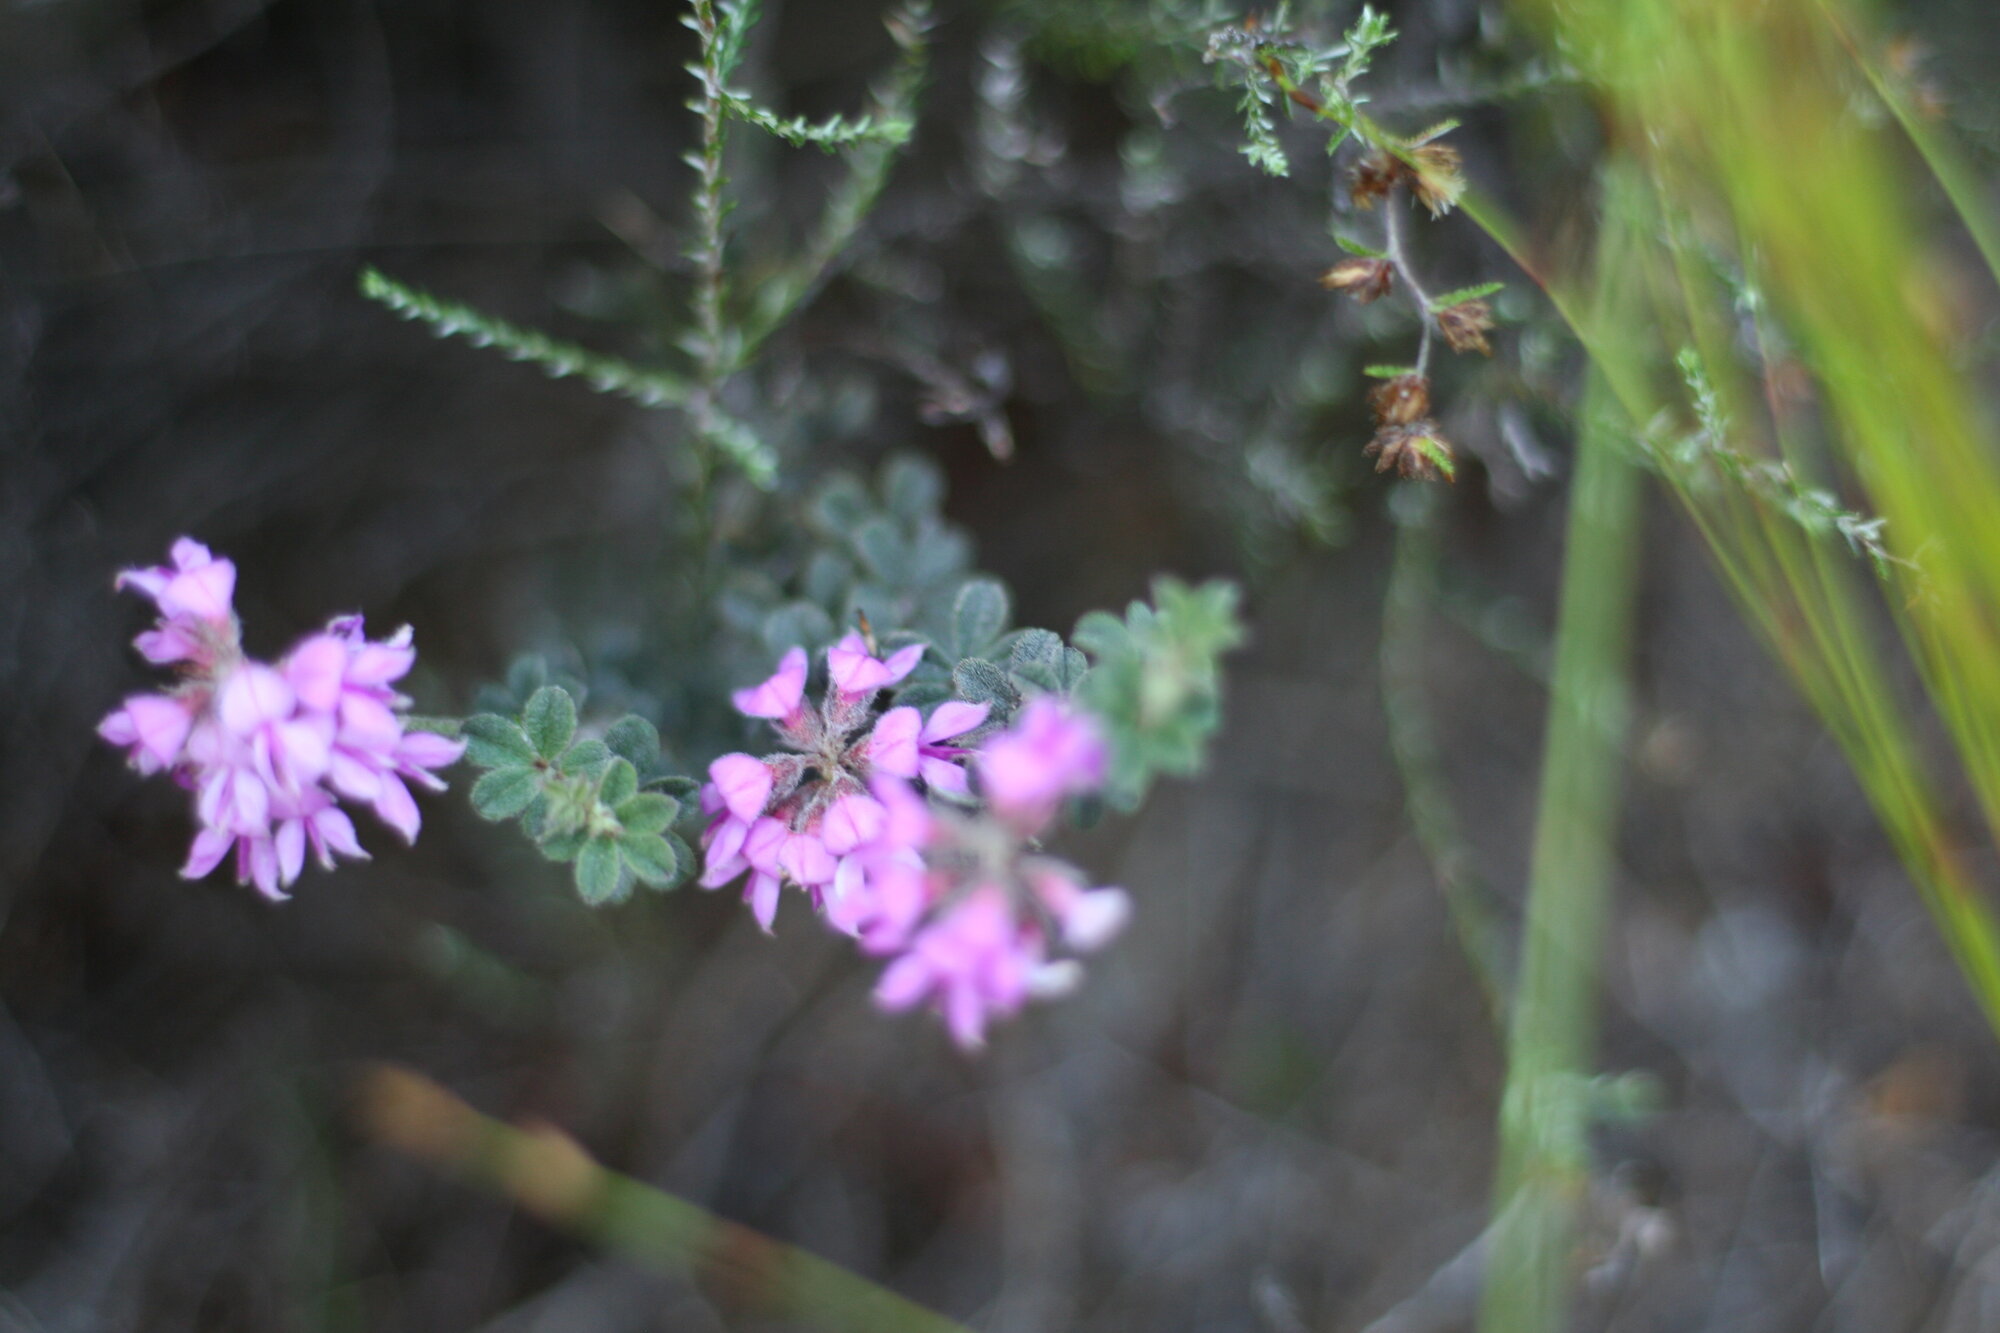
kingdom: Plantae
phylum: Tracheophyta
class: Magnoliopsida
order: Fabales
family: Fabaceae
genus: Indigofera
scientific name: Indigofera mauritanica
